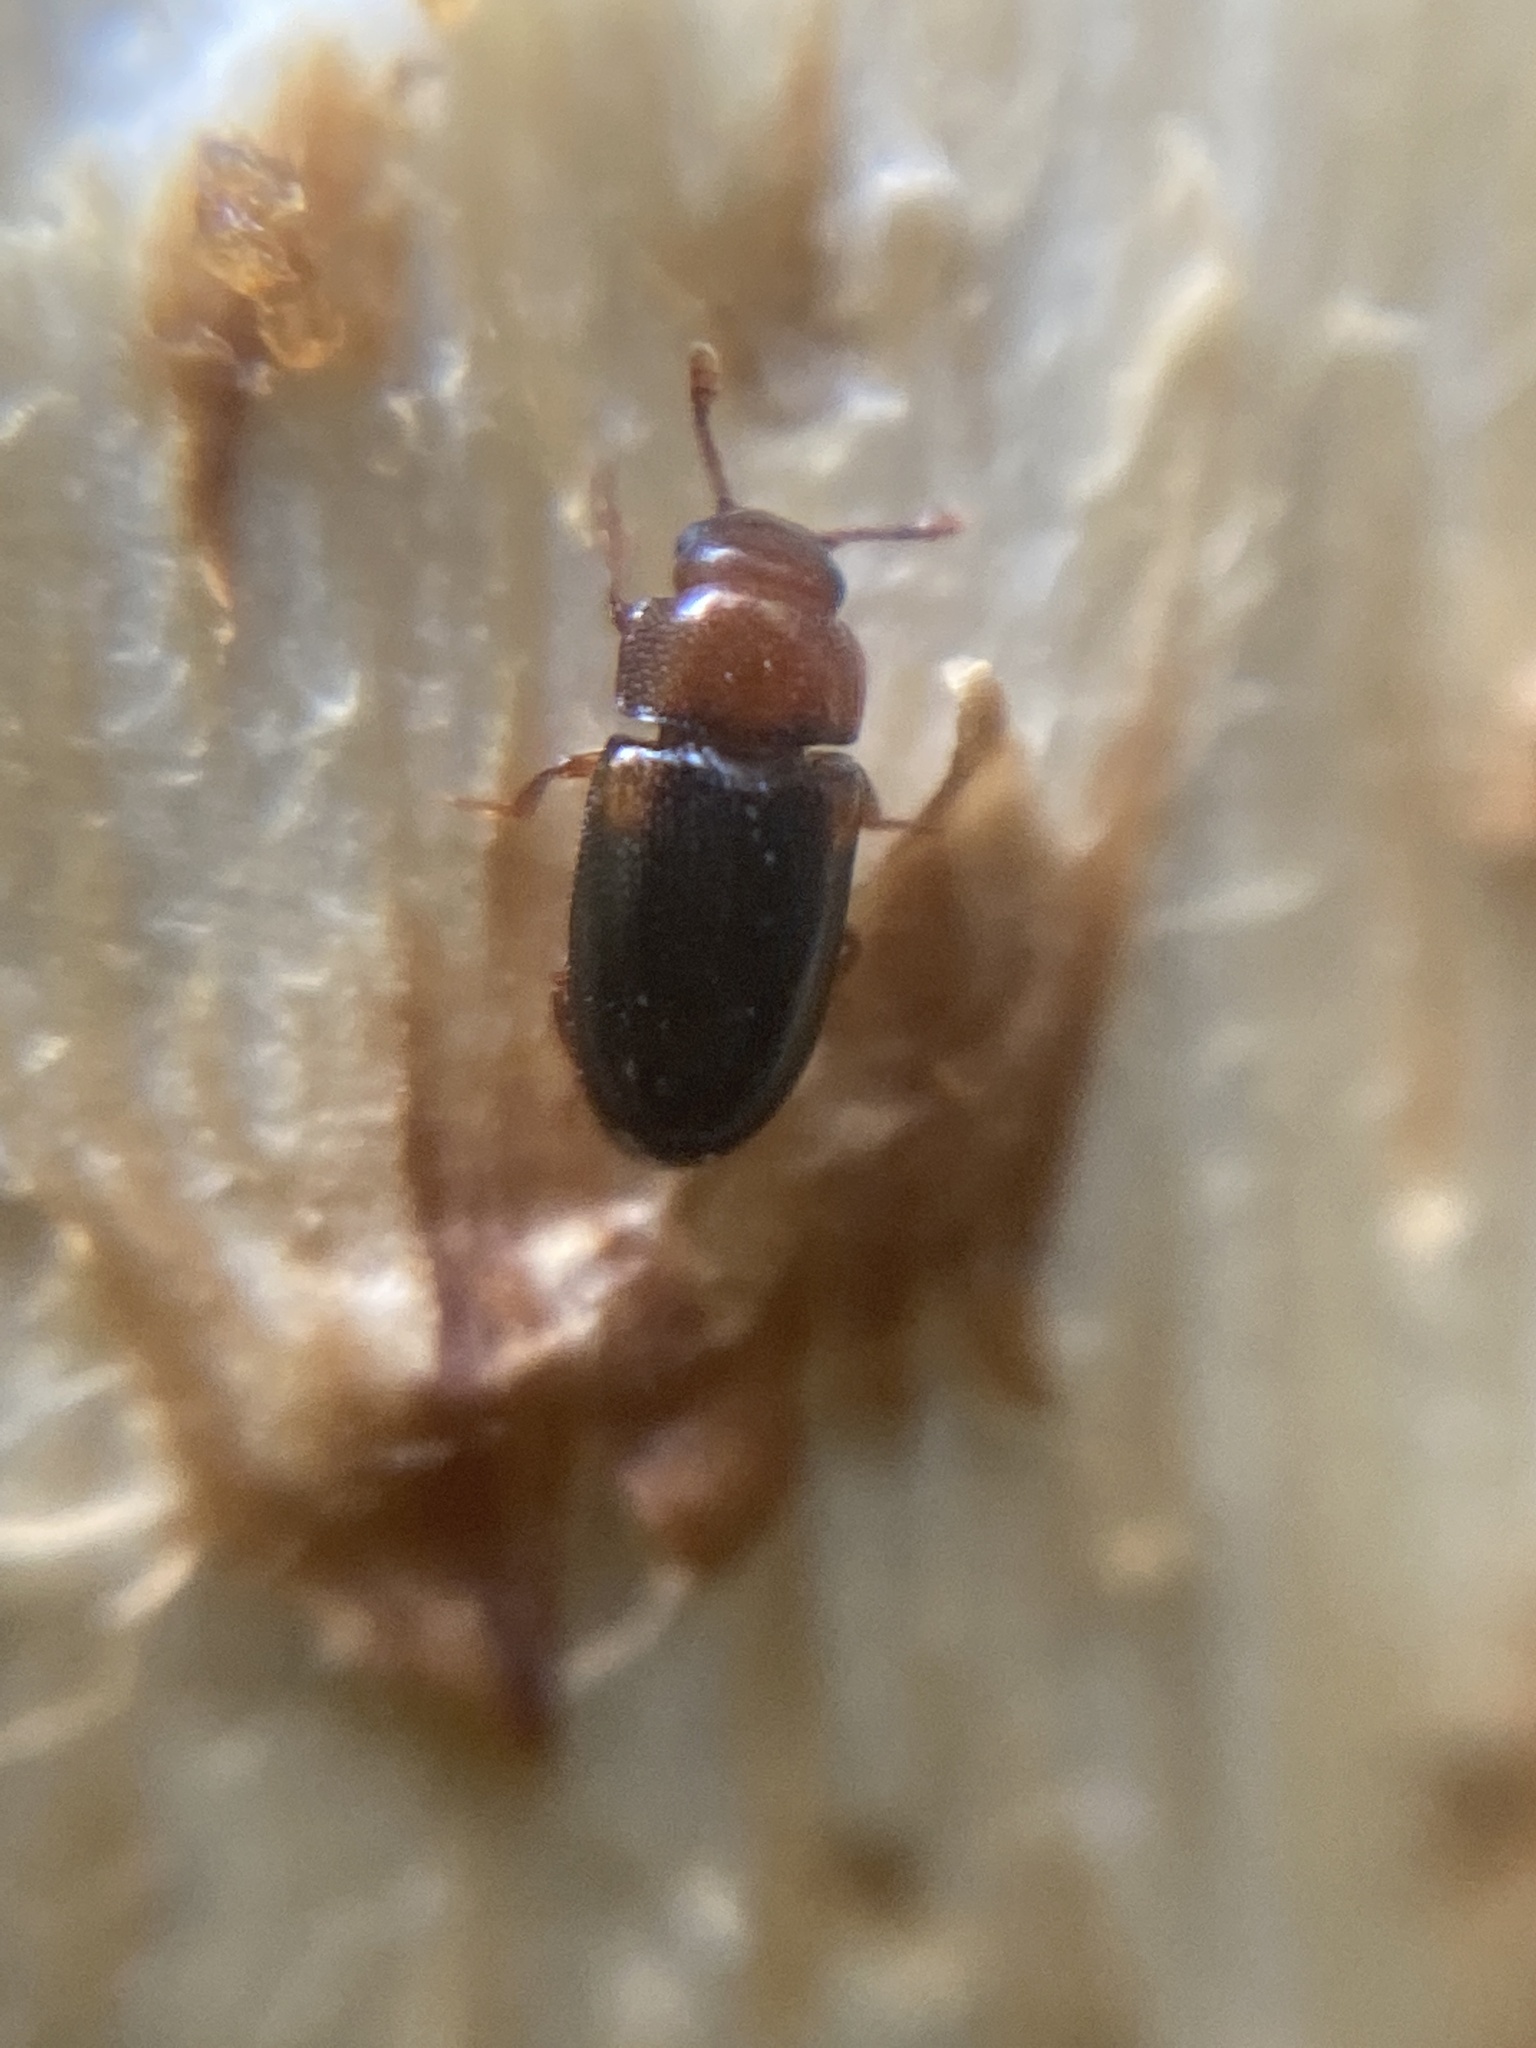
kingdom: Animalia
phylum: Arthropoda
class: Insecta
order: Coleoptera
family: Erotylidae
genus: Dacne
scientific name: Dacne bipustulata
